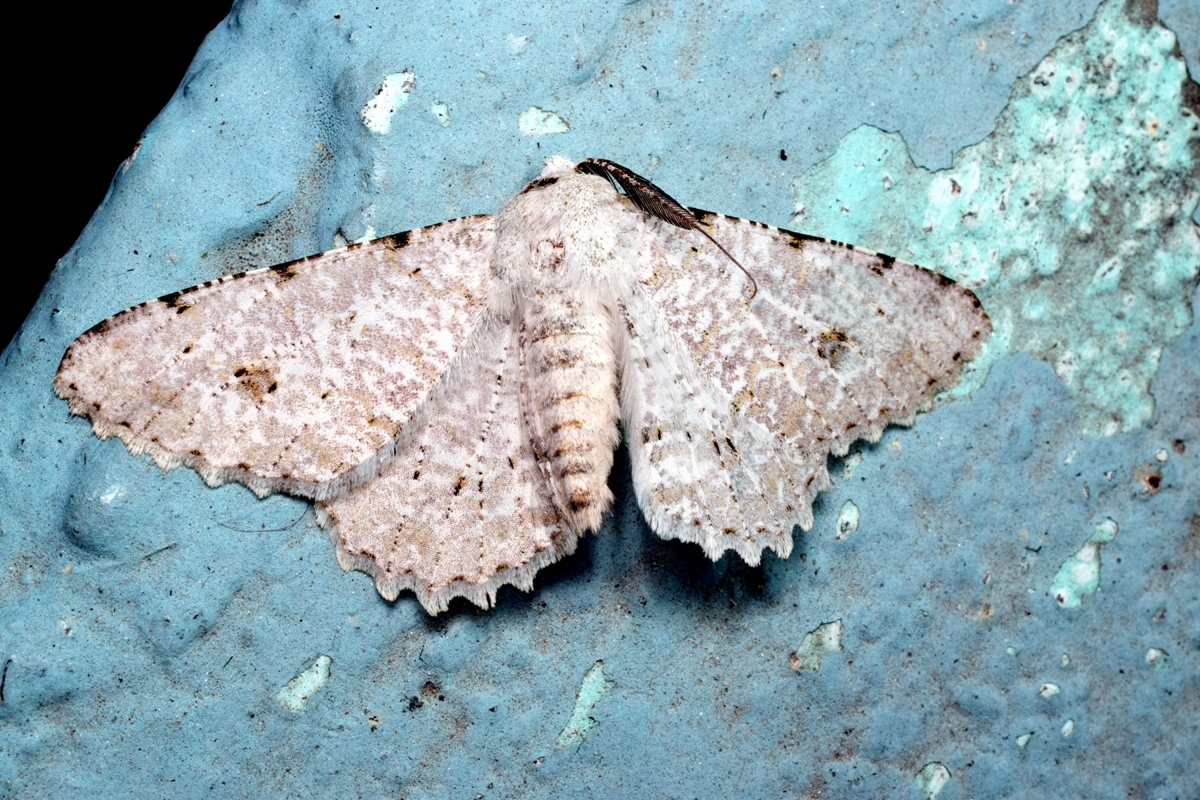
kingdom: Animalia
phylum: Arthropoda
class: Insecta
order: Lepidoptera
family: Geometridae
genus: Lassaba
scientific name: Lassaba albidaria
